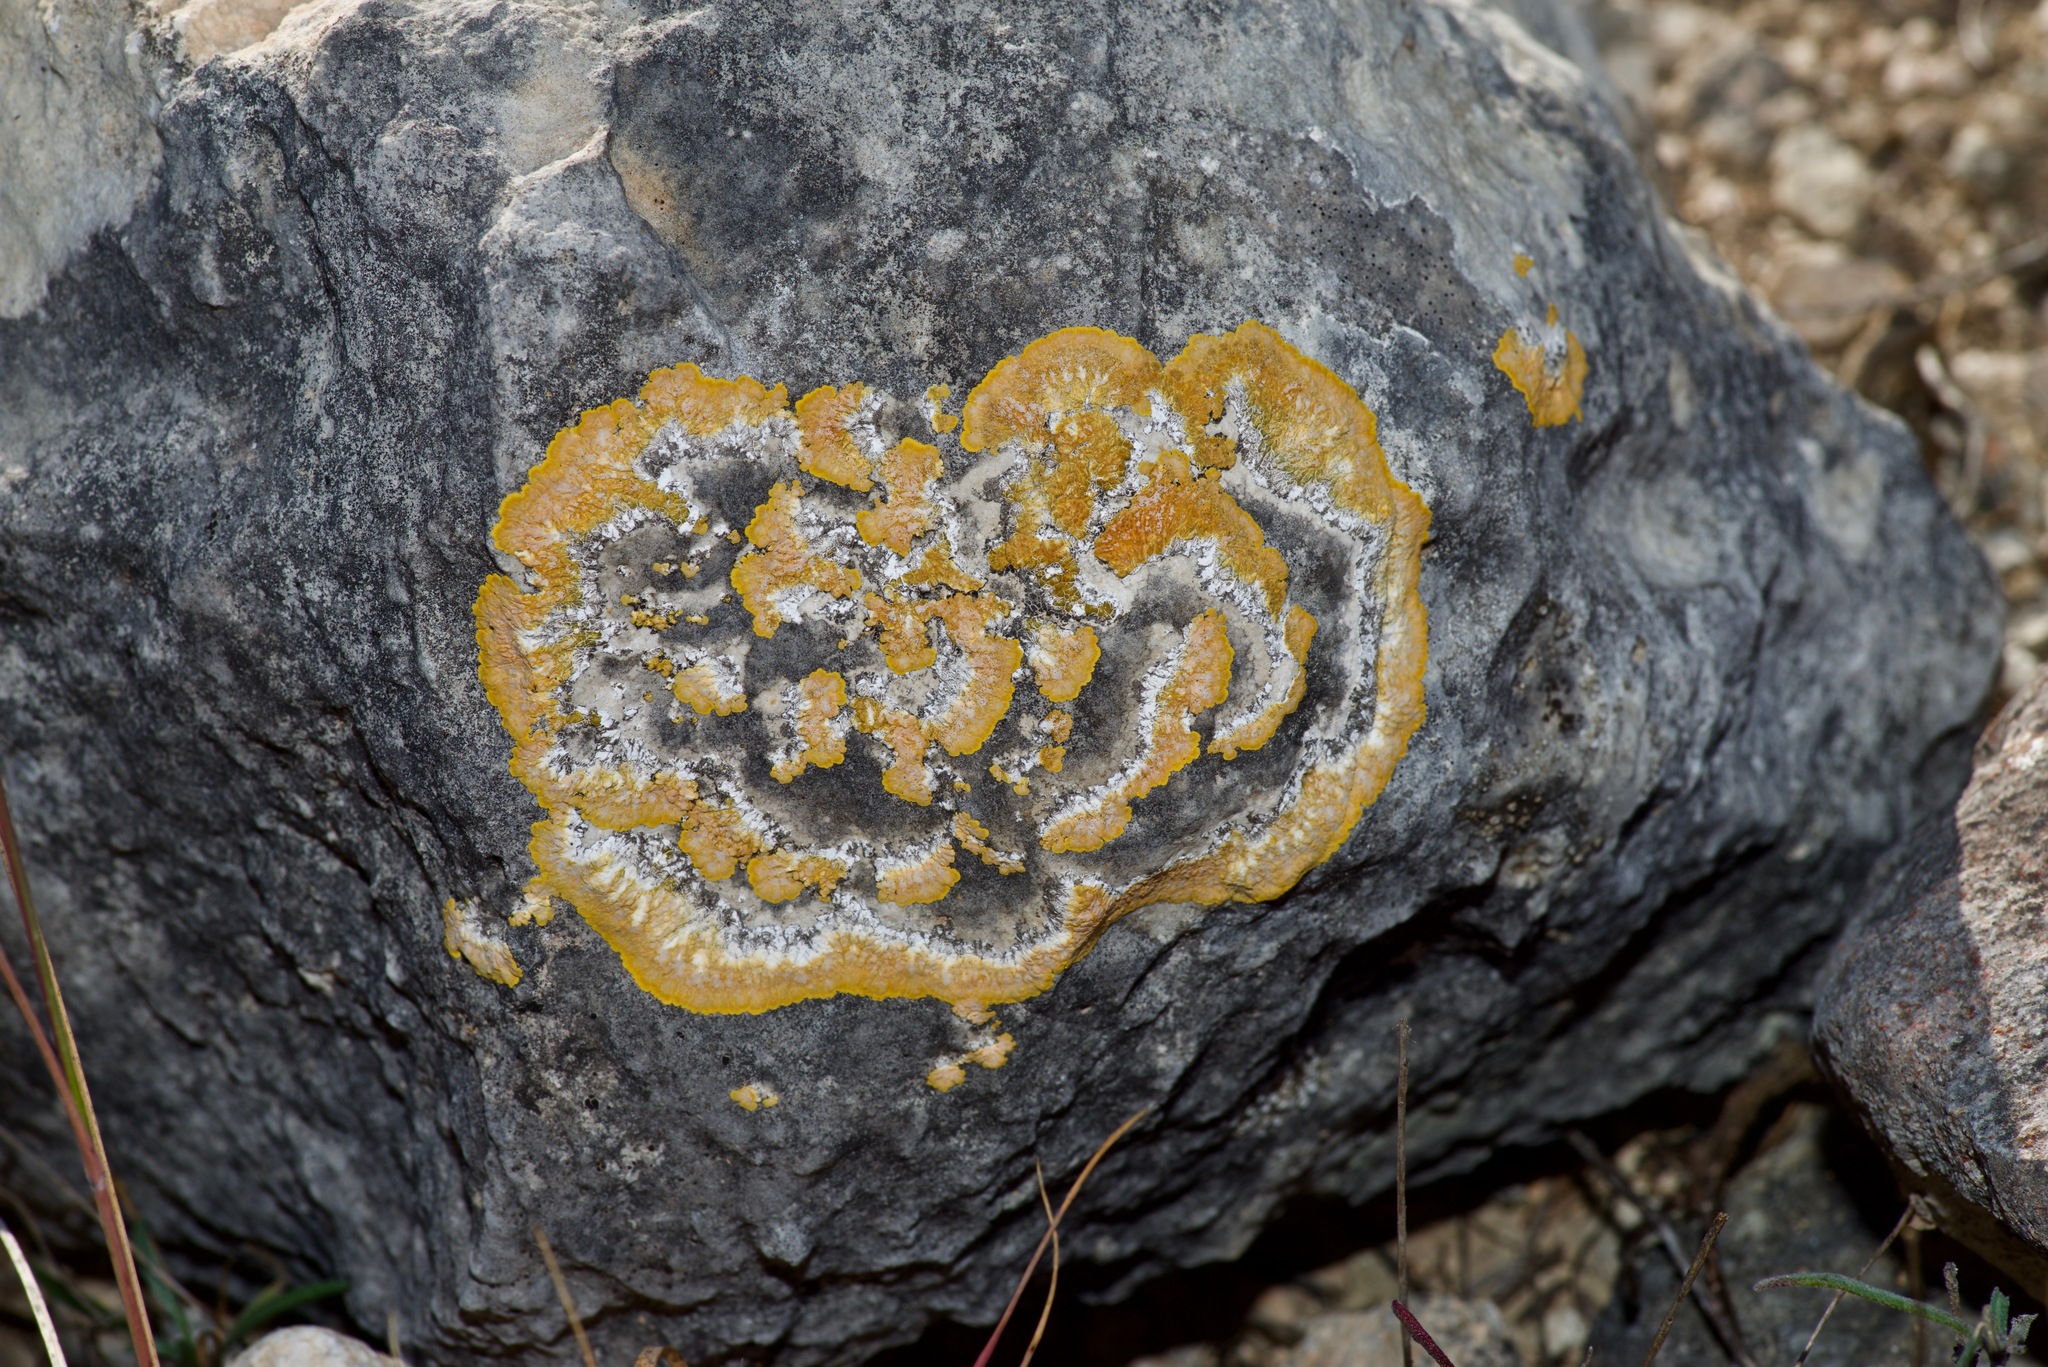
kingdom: Fungi
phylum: Ascomycota
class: Lecanoromycetes
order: Teloschistales
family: Teloschistaceae
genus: Caloplaca
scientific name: Caloplaca eugyra
